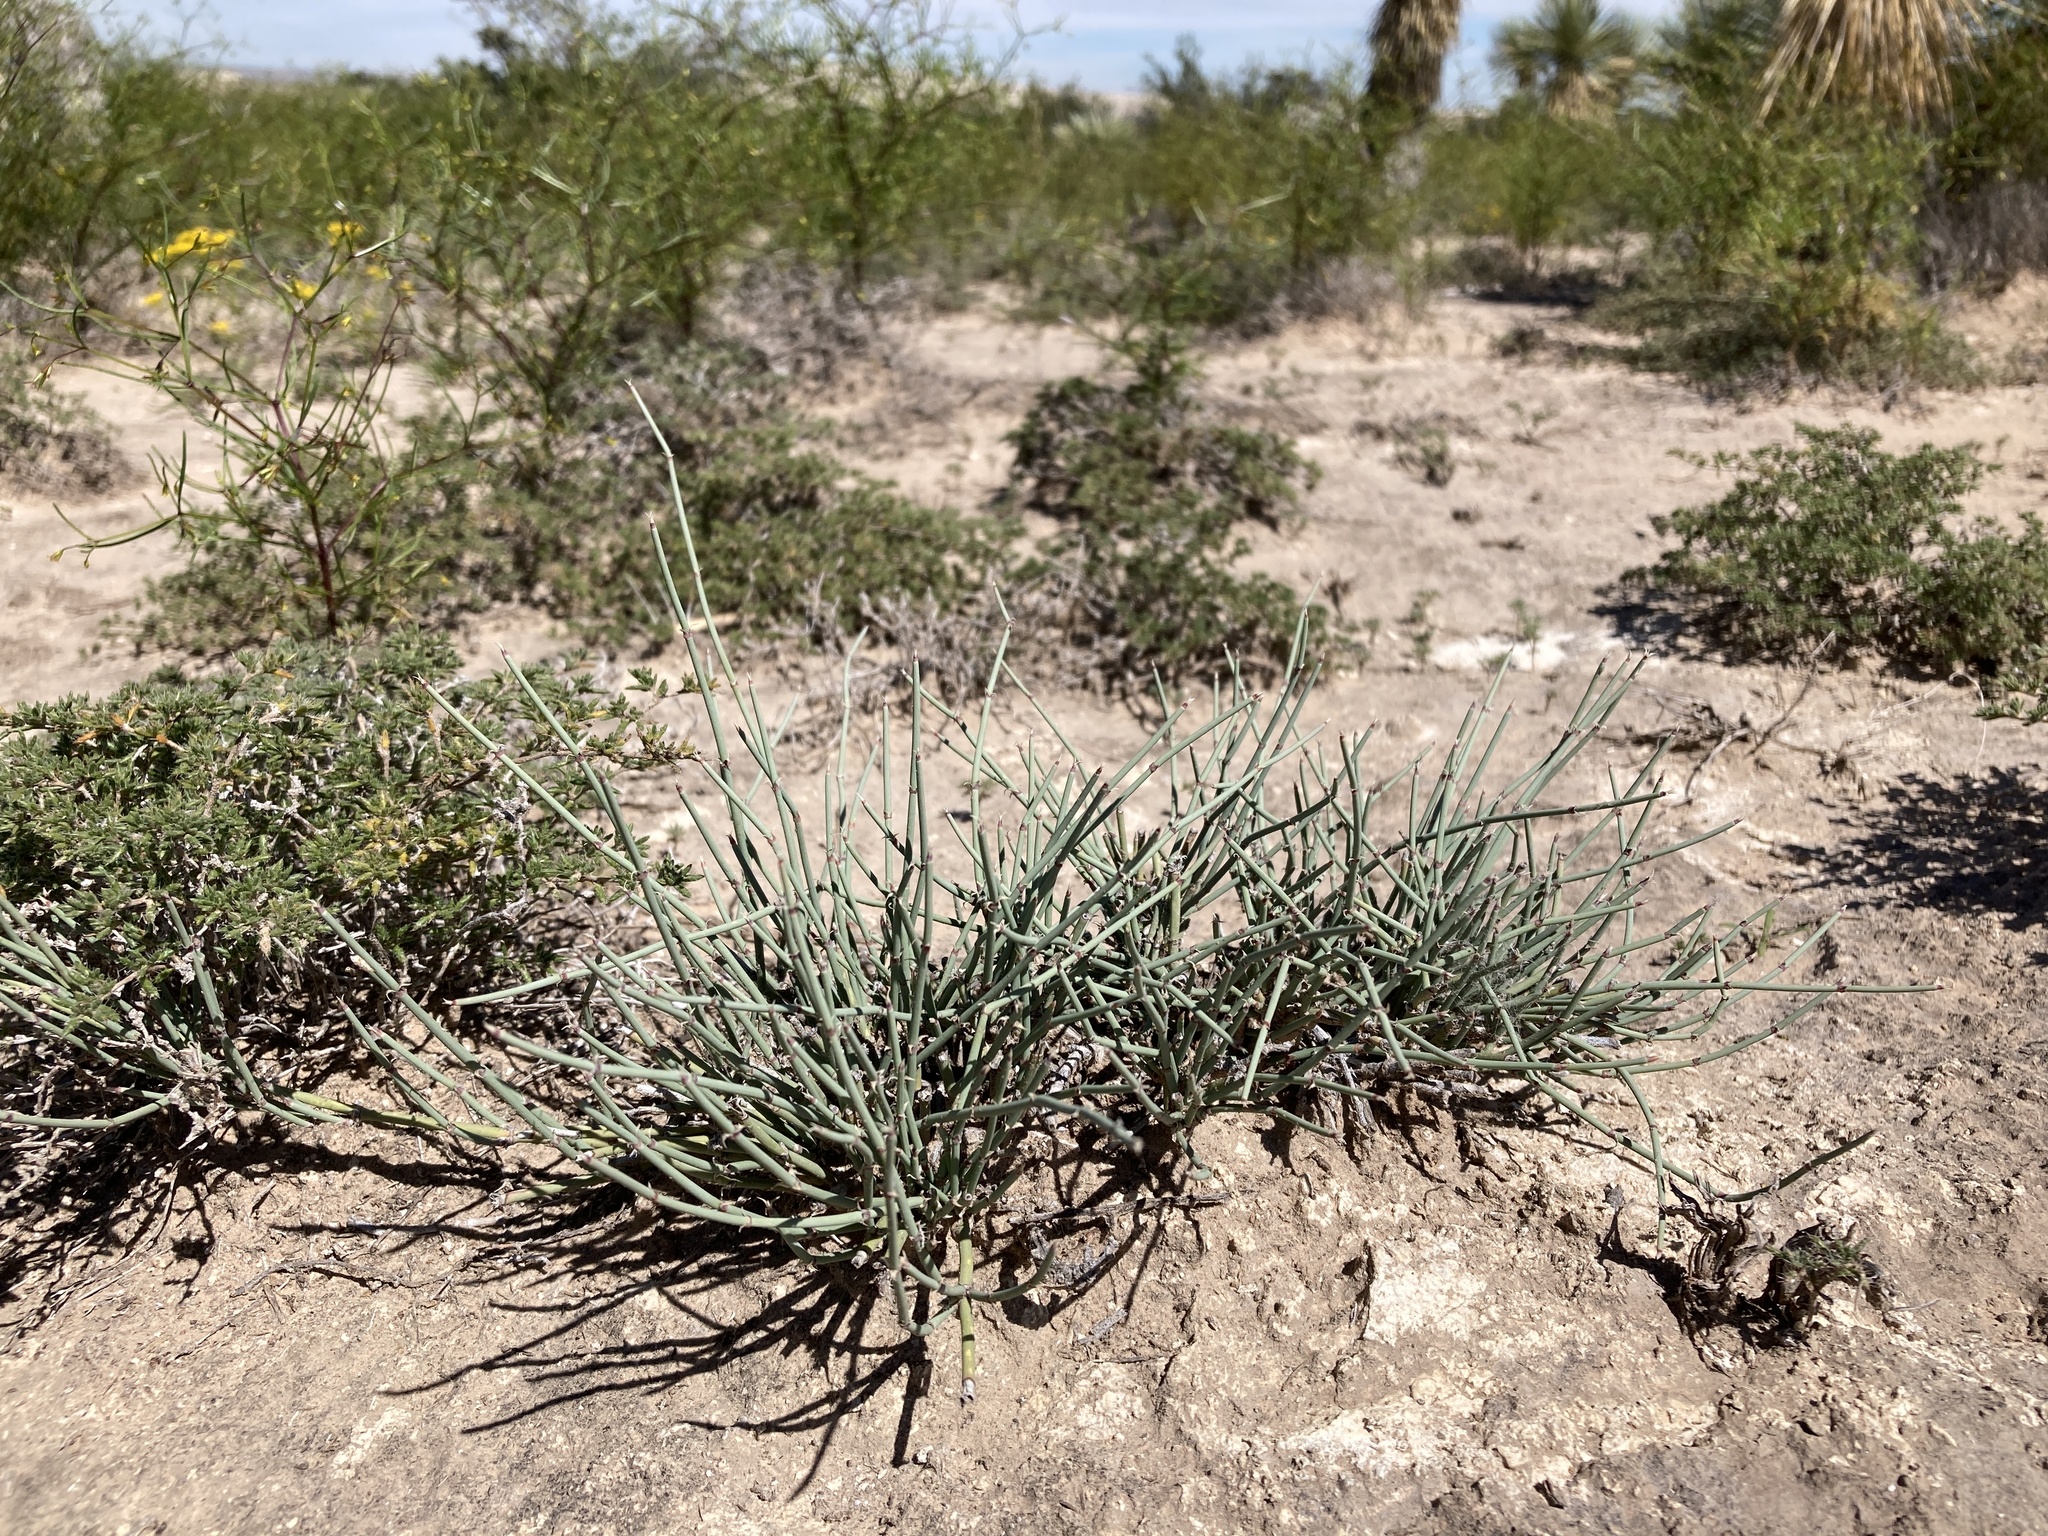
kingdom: Plantae
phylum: Tracheophyta
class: Gnetopsida
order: Ephedrales
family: Ephedraceae
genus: Ephedra
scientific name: Ephedra torreyana
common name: Torrey ephedra
